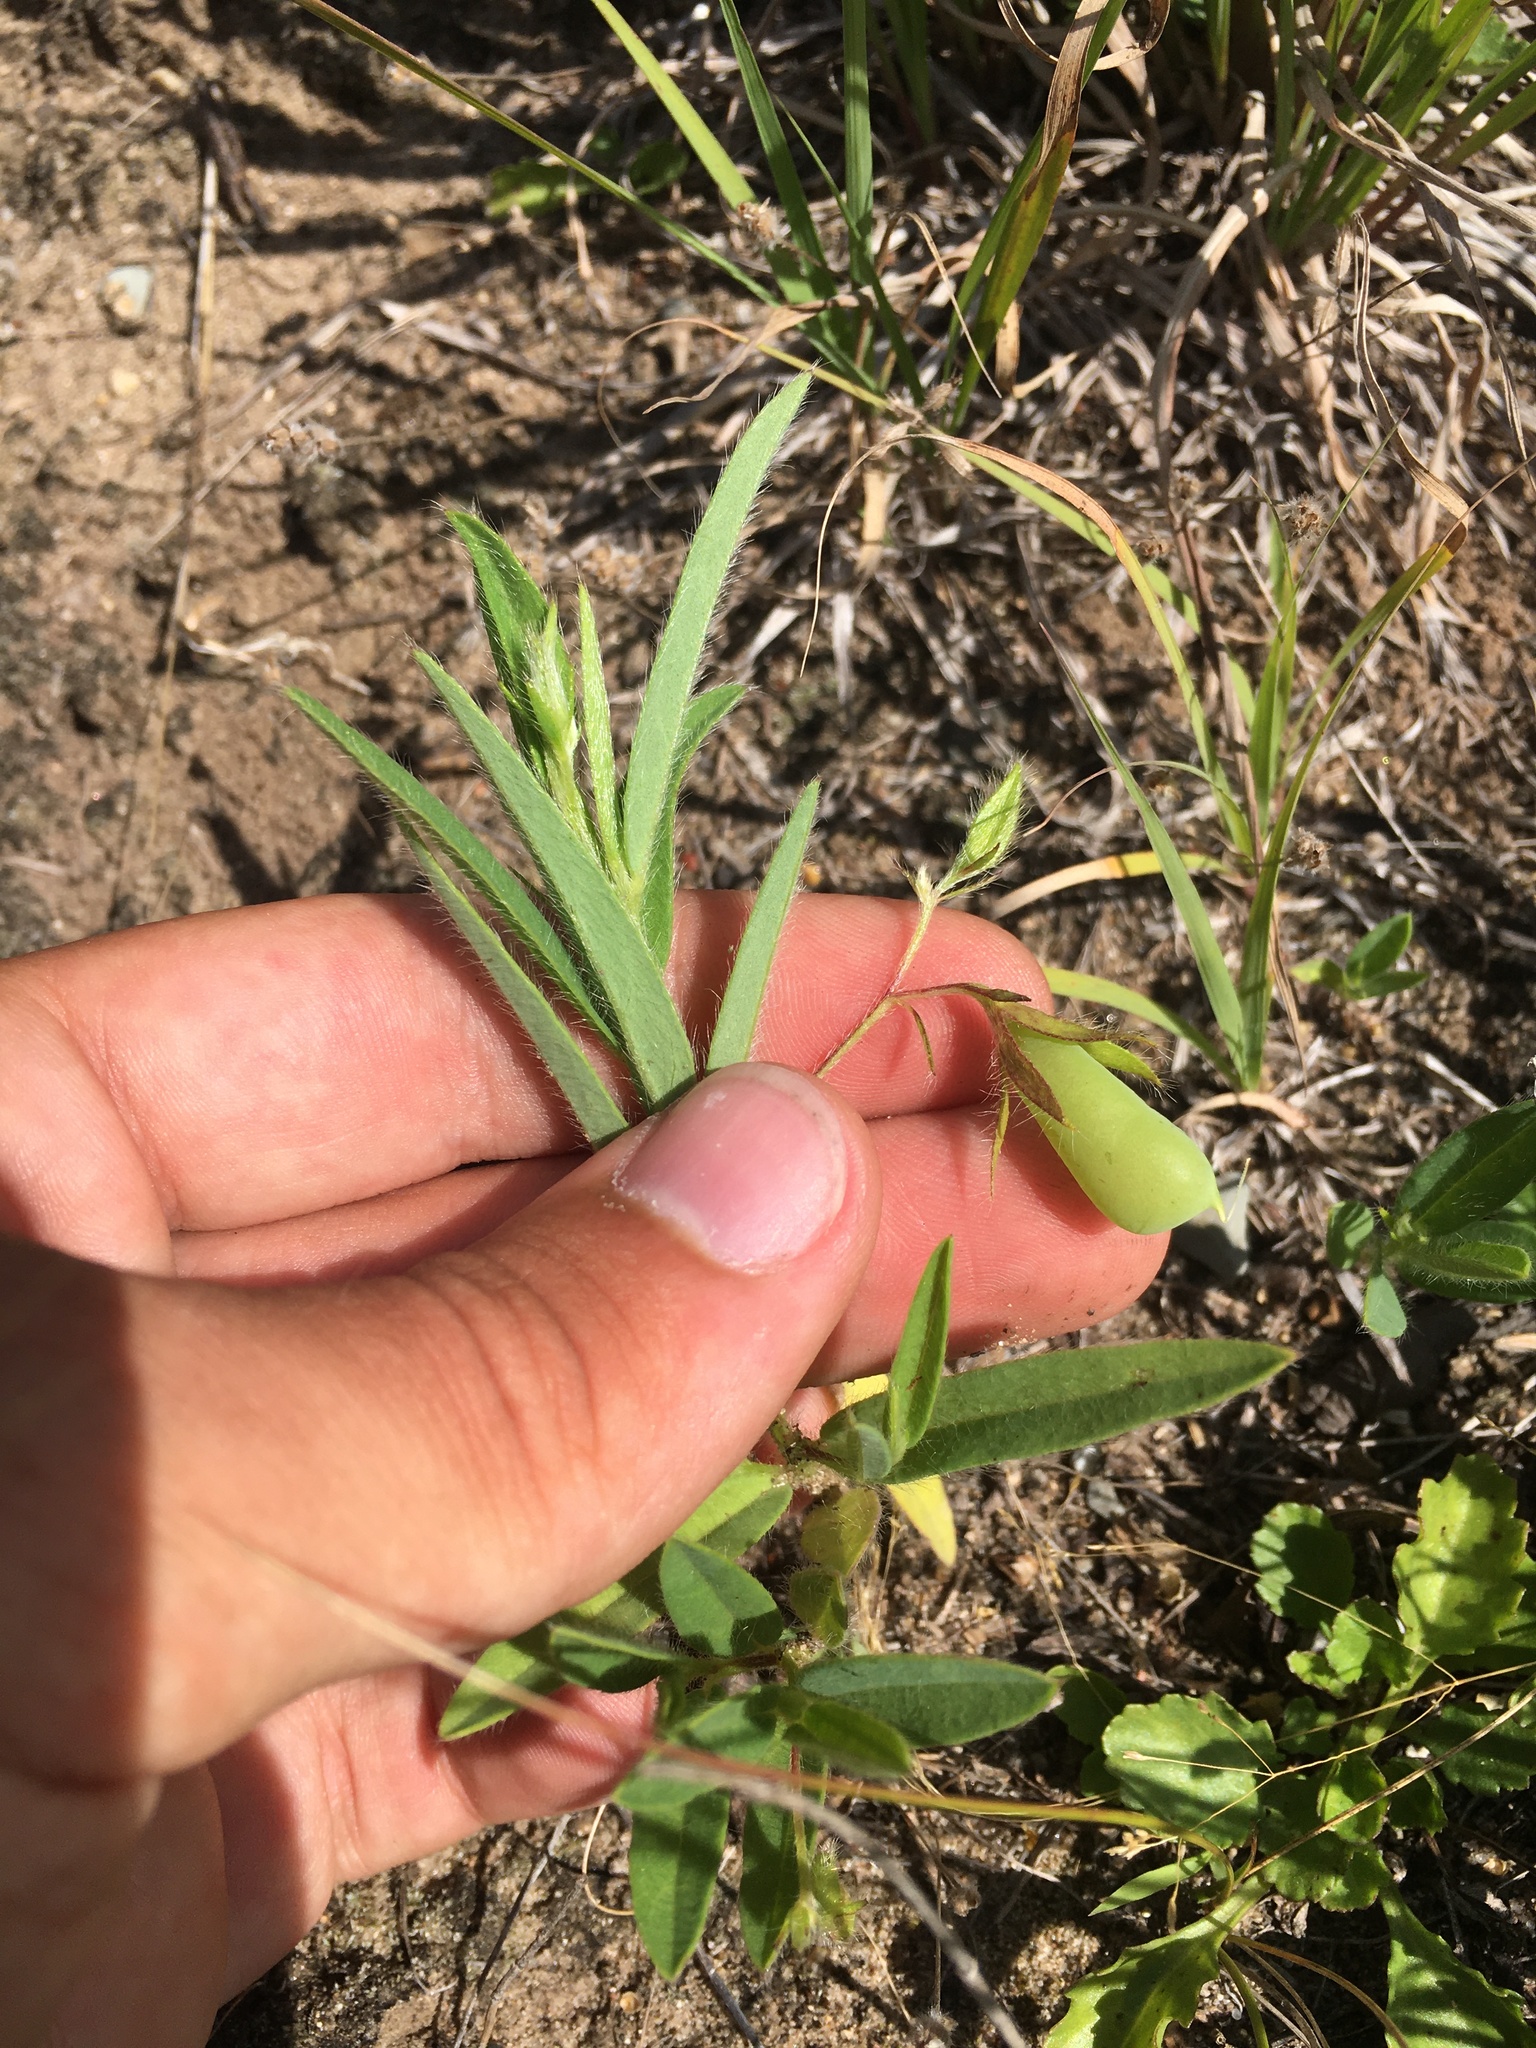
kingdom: Plantae
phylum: Tracheophyta
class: Magnoliopsida
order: Fabales
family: Fabaceae
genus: Crotalaria
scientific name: Crotalaria sagittalis
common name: Arrowhead rattlebox
